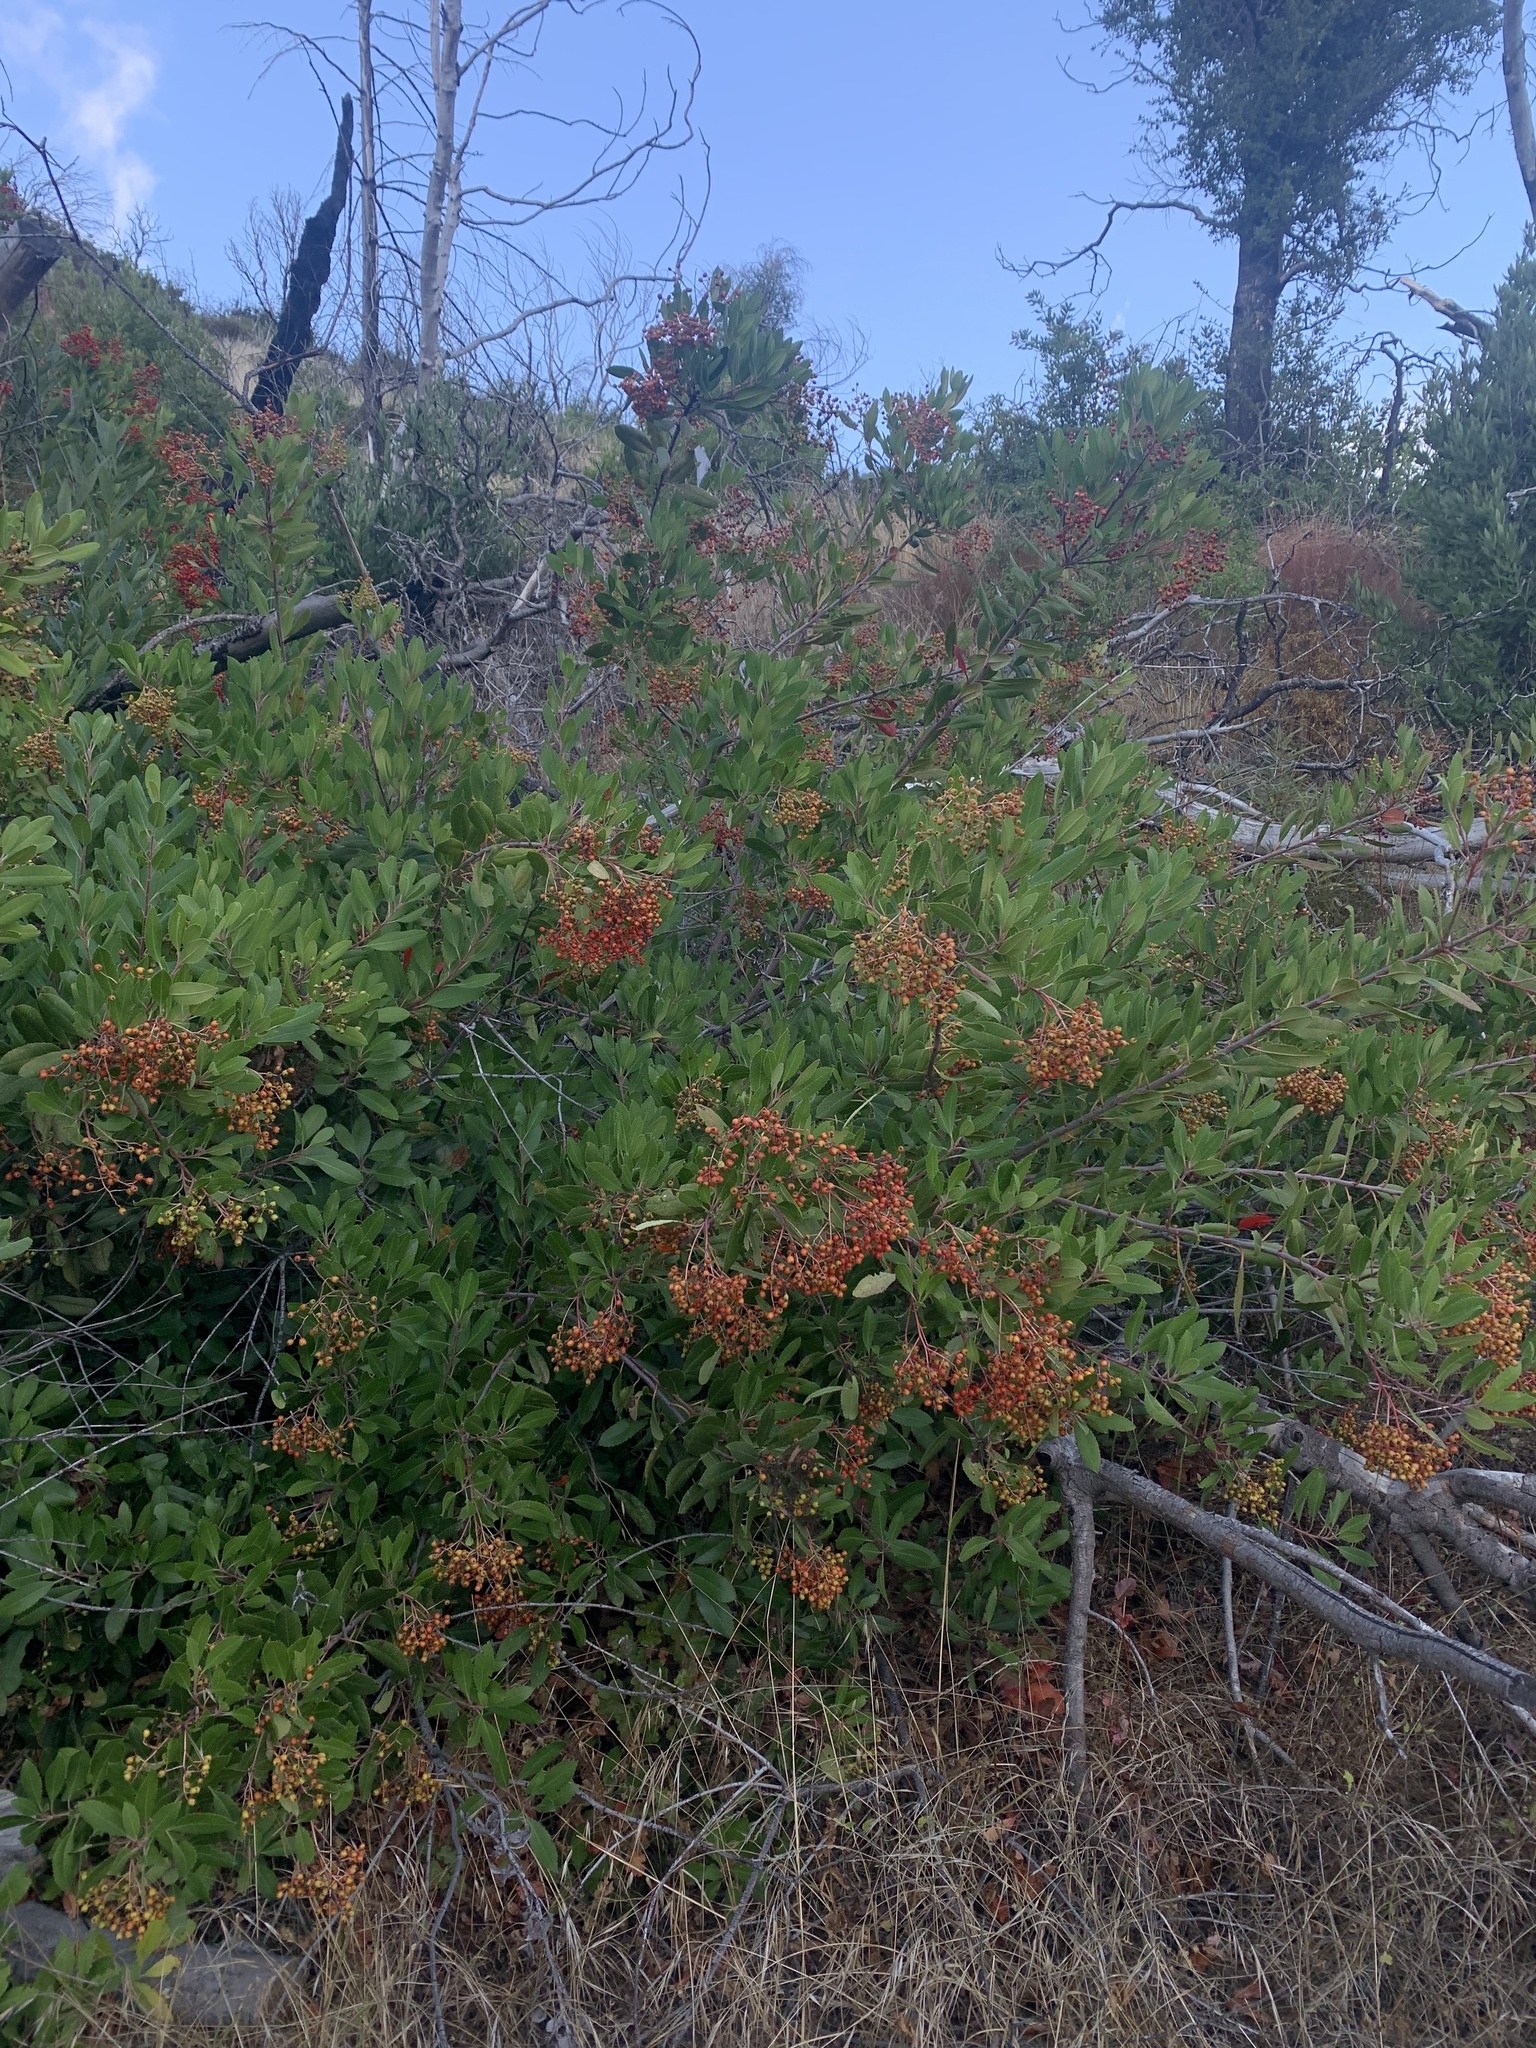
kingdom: Plantae
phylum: Tracheophyta
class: Magnoliopsida
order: Rosales
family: Rosaceae
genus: Heteromeles
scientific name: Heteromeles arbutifolia
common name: California-holly
